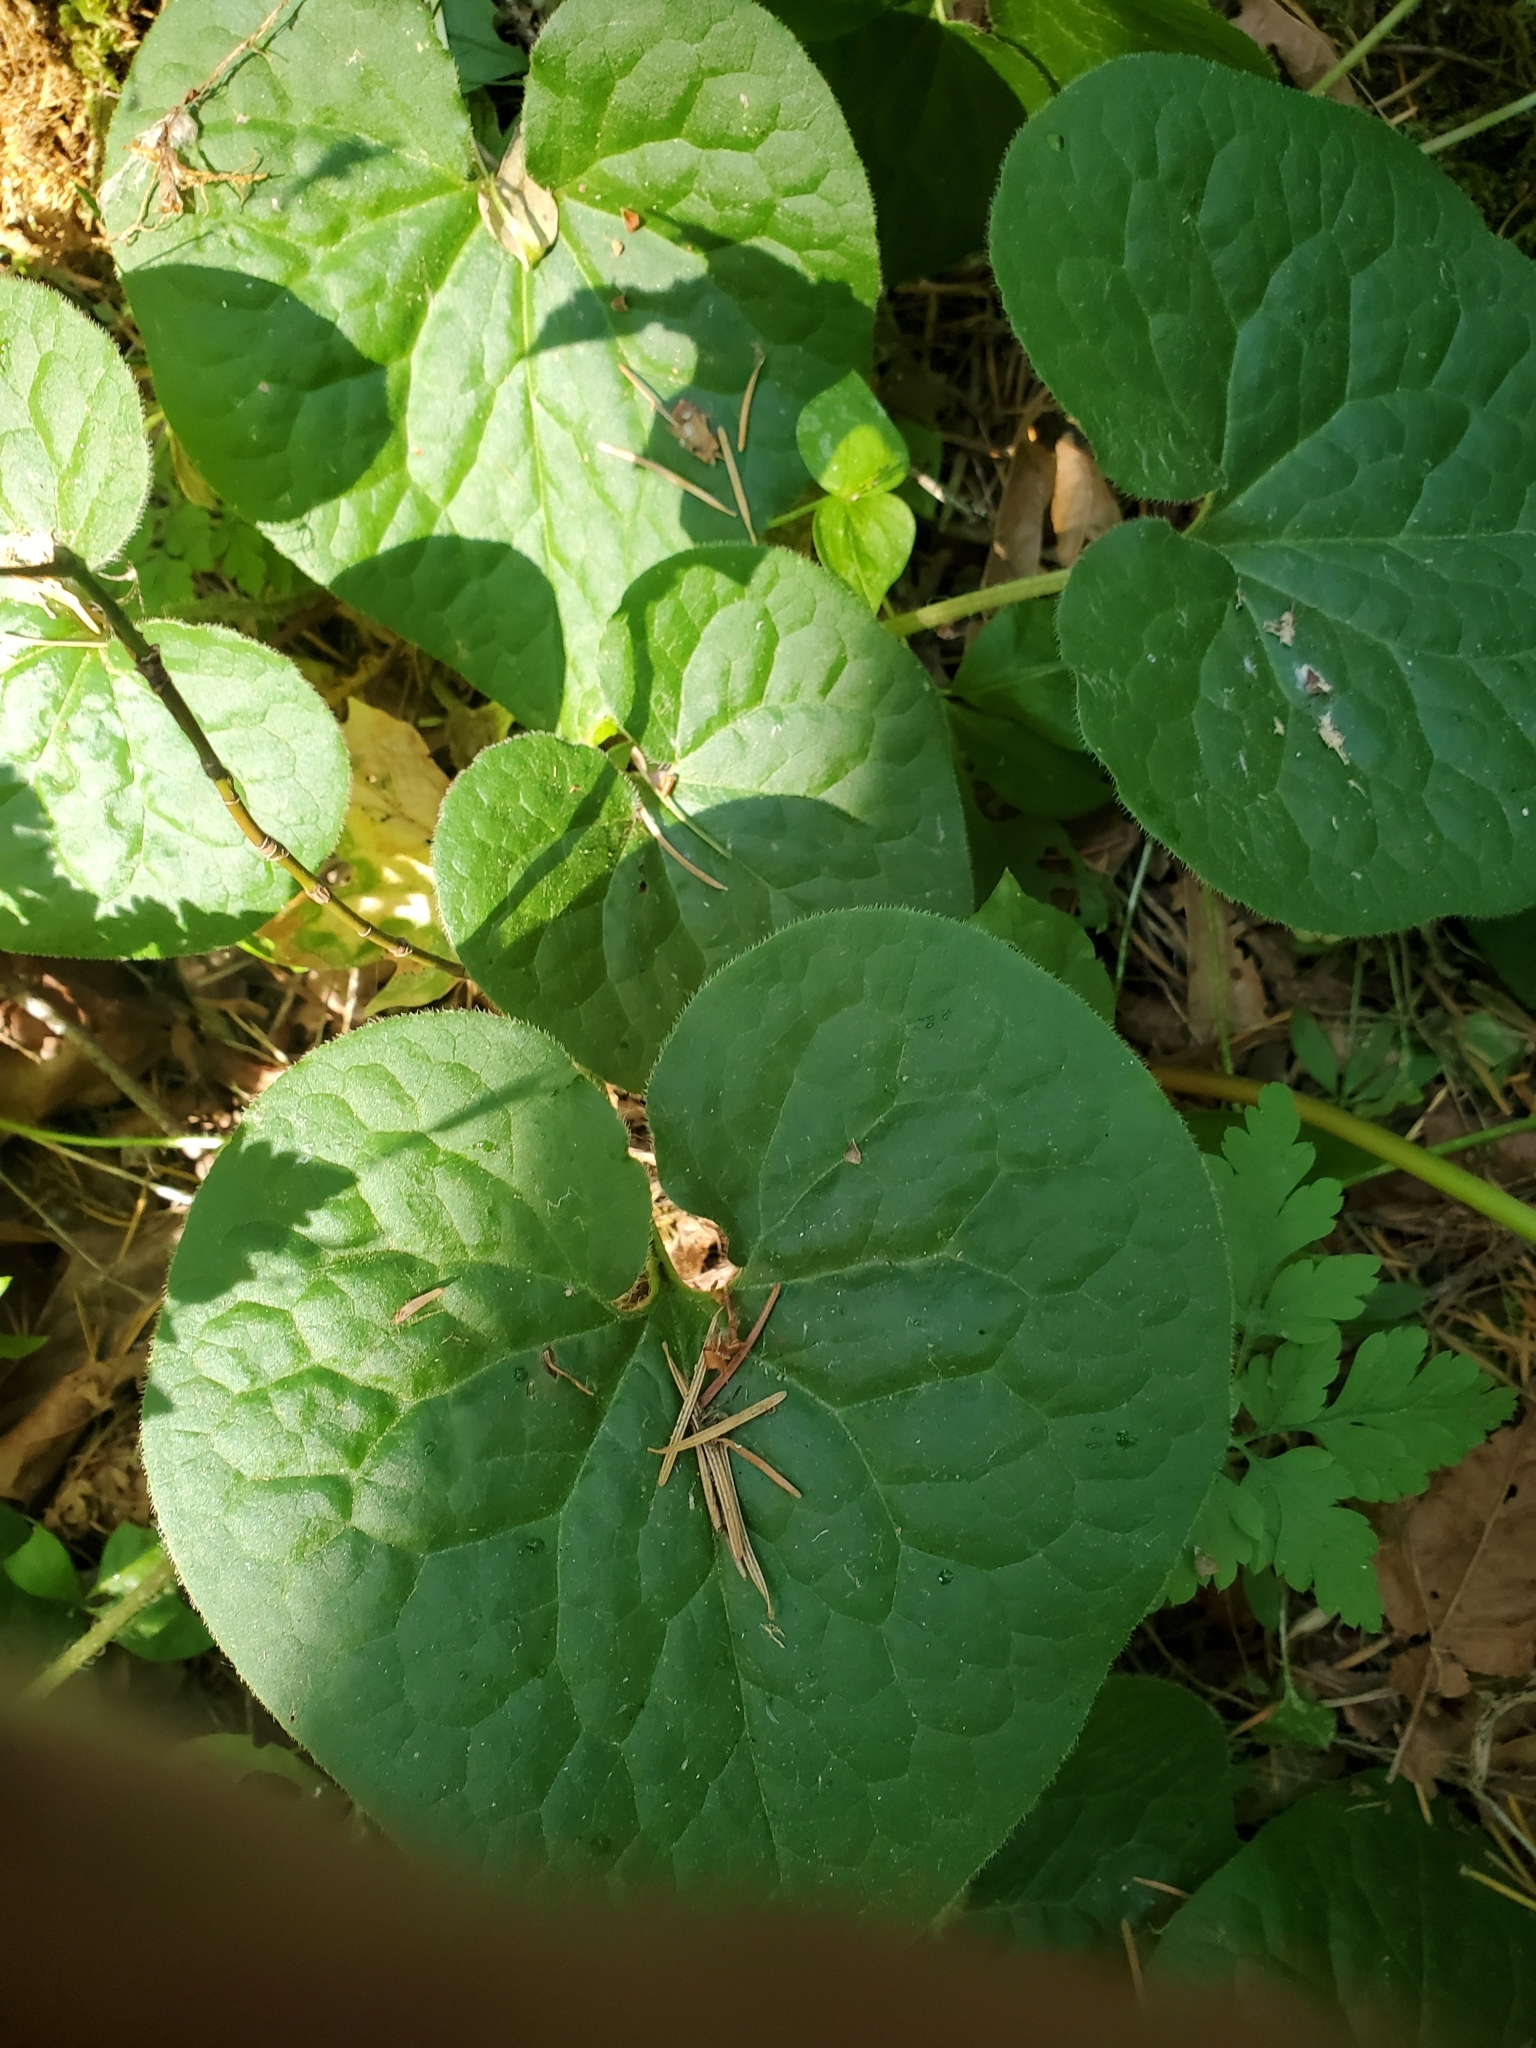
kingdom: Plantae
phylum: Tracheophyta
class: Magnoliopsida
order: Piperales
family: Aristolochiaceae
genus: Asarum
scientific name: Asarum caudatum
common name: Wild ginger
